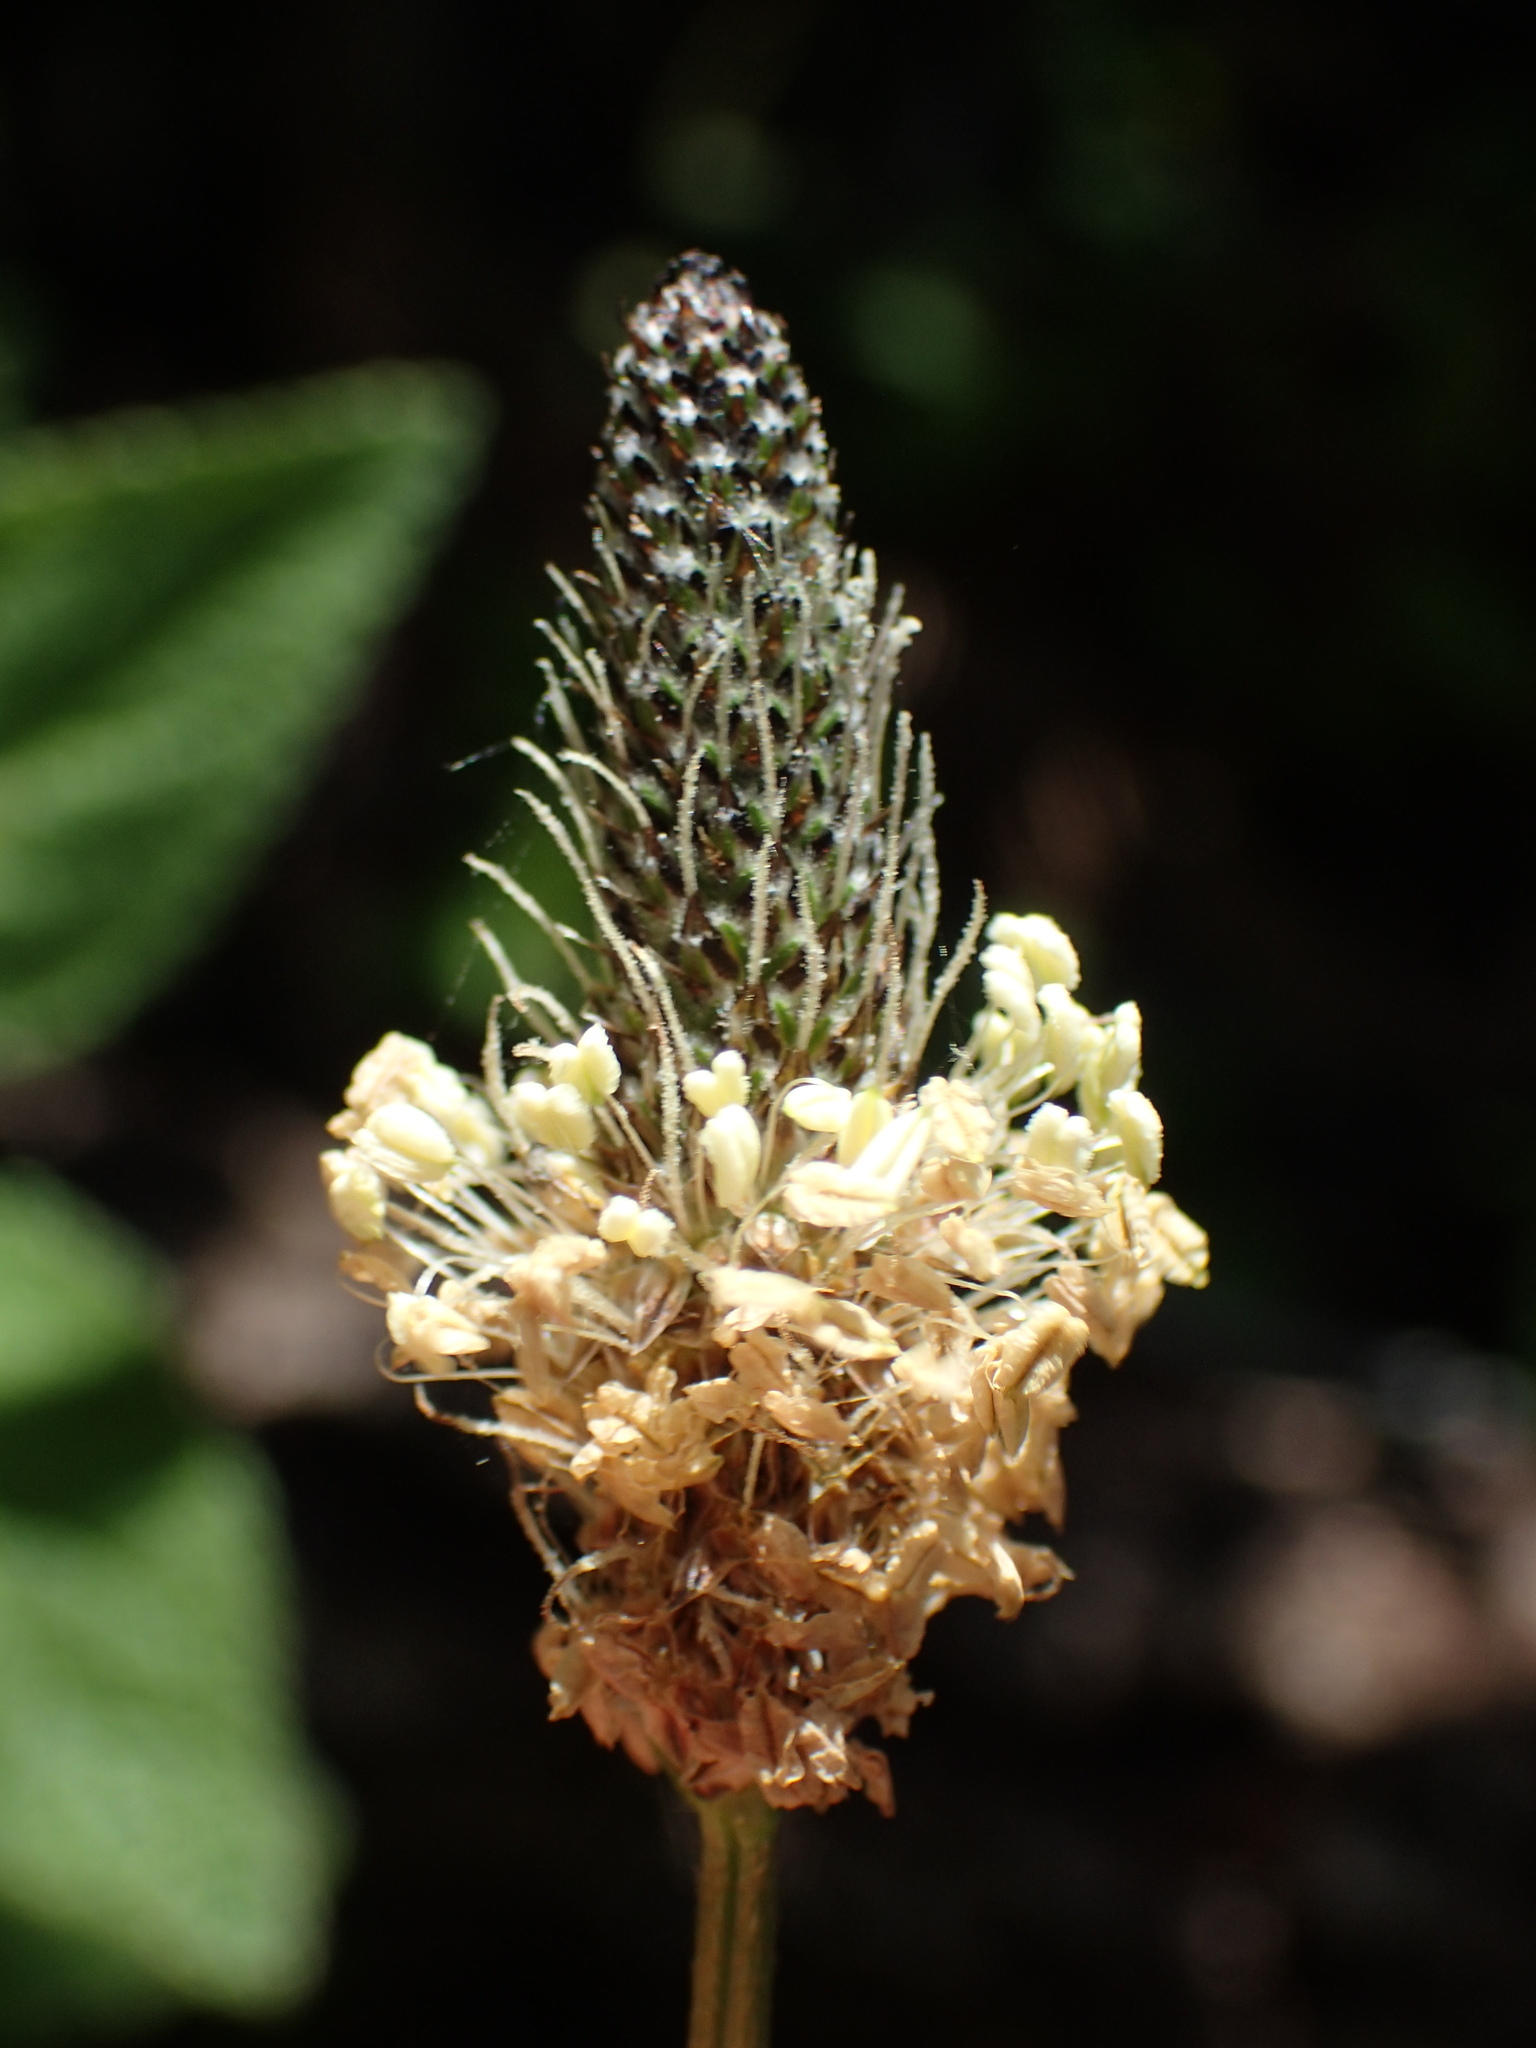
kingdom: Plantae
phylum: Tracheophyta
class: Magnoliopsida
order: Lamiales
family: Plantaginaceae
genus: Plantago
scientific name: Plantago lanceolata
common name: Ribwort plantain
